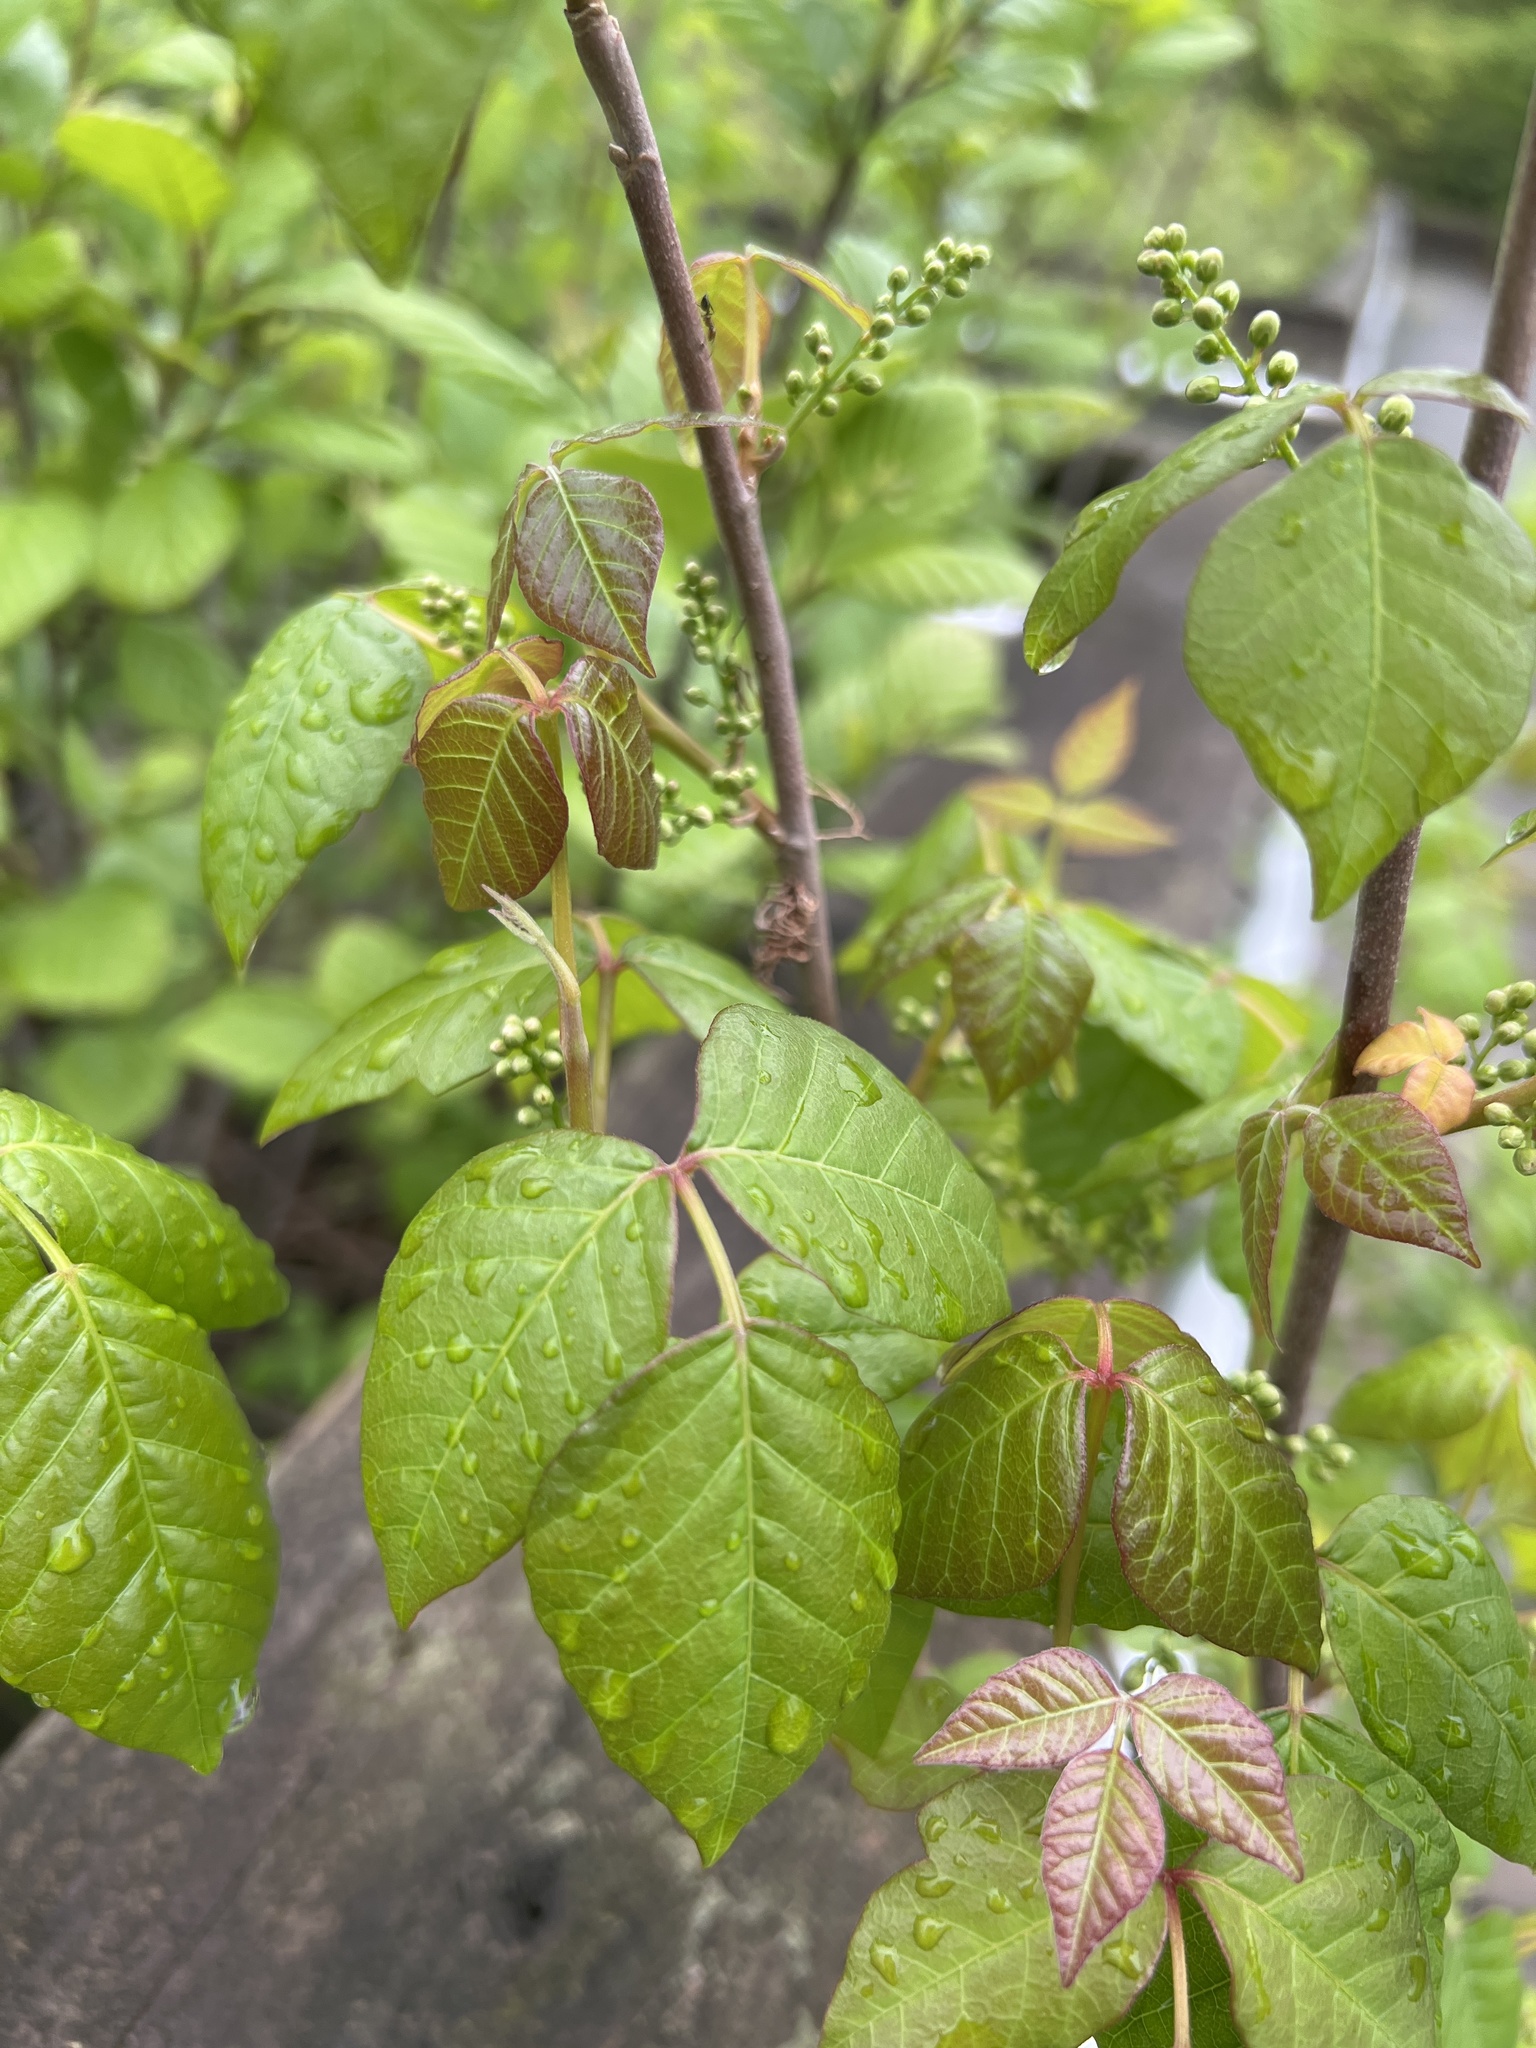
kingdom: Plantae
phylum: Tracheophyta
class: Magnoliopsida
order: Sapindales
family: Anacardiaceae
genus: Toxicodendron
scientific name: Toxicodendron radicans
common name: Poison ivy
